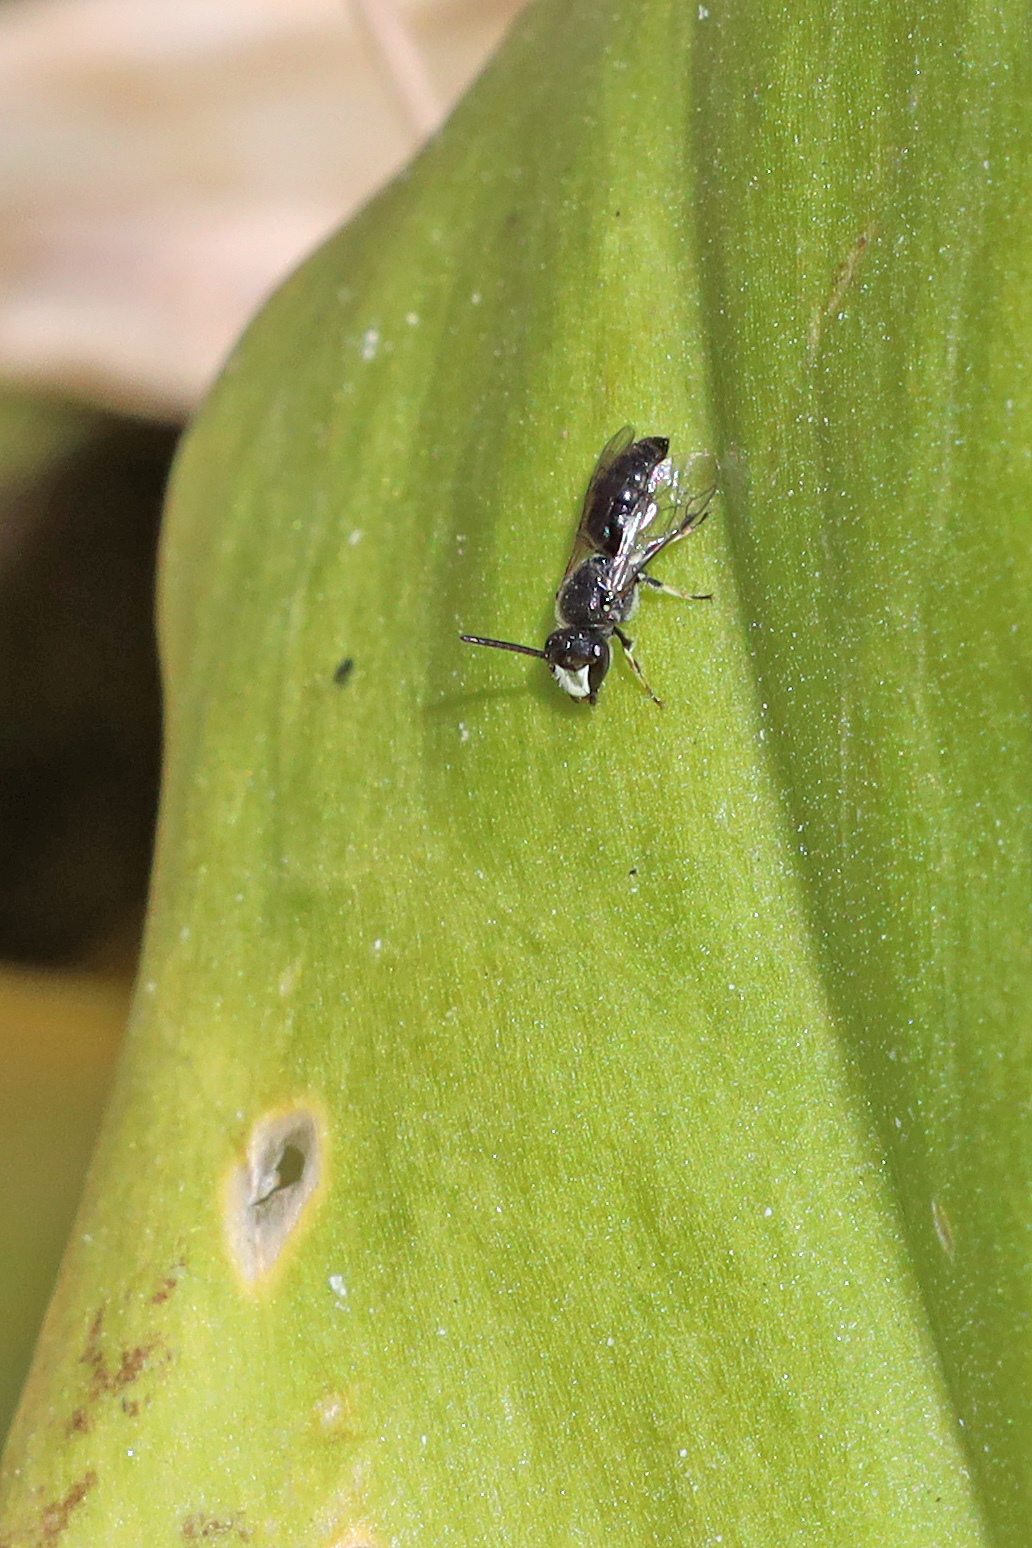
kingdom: Animalia
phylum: Arthropoda
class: Insecta
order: Hymenoptera
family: Colletidae
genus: Hylaeus
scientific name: Hylaeus hyalinatus
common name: Hyaline masked bee
